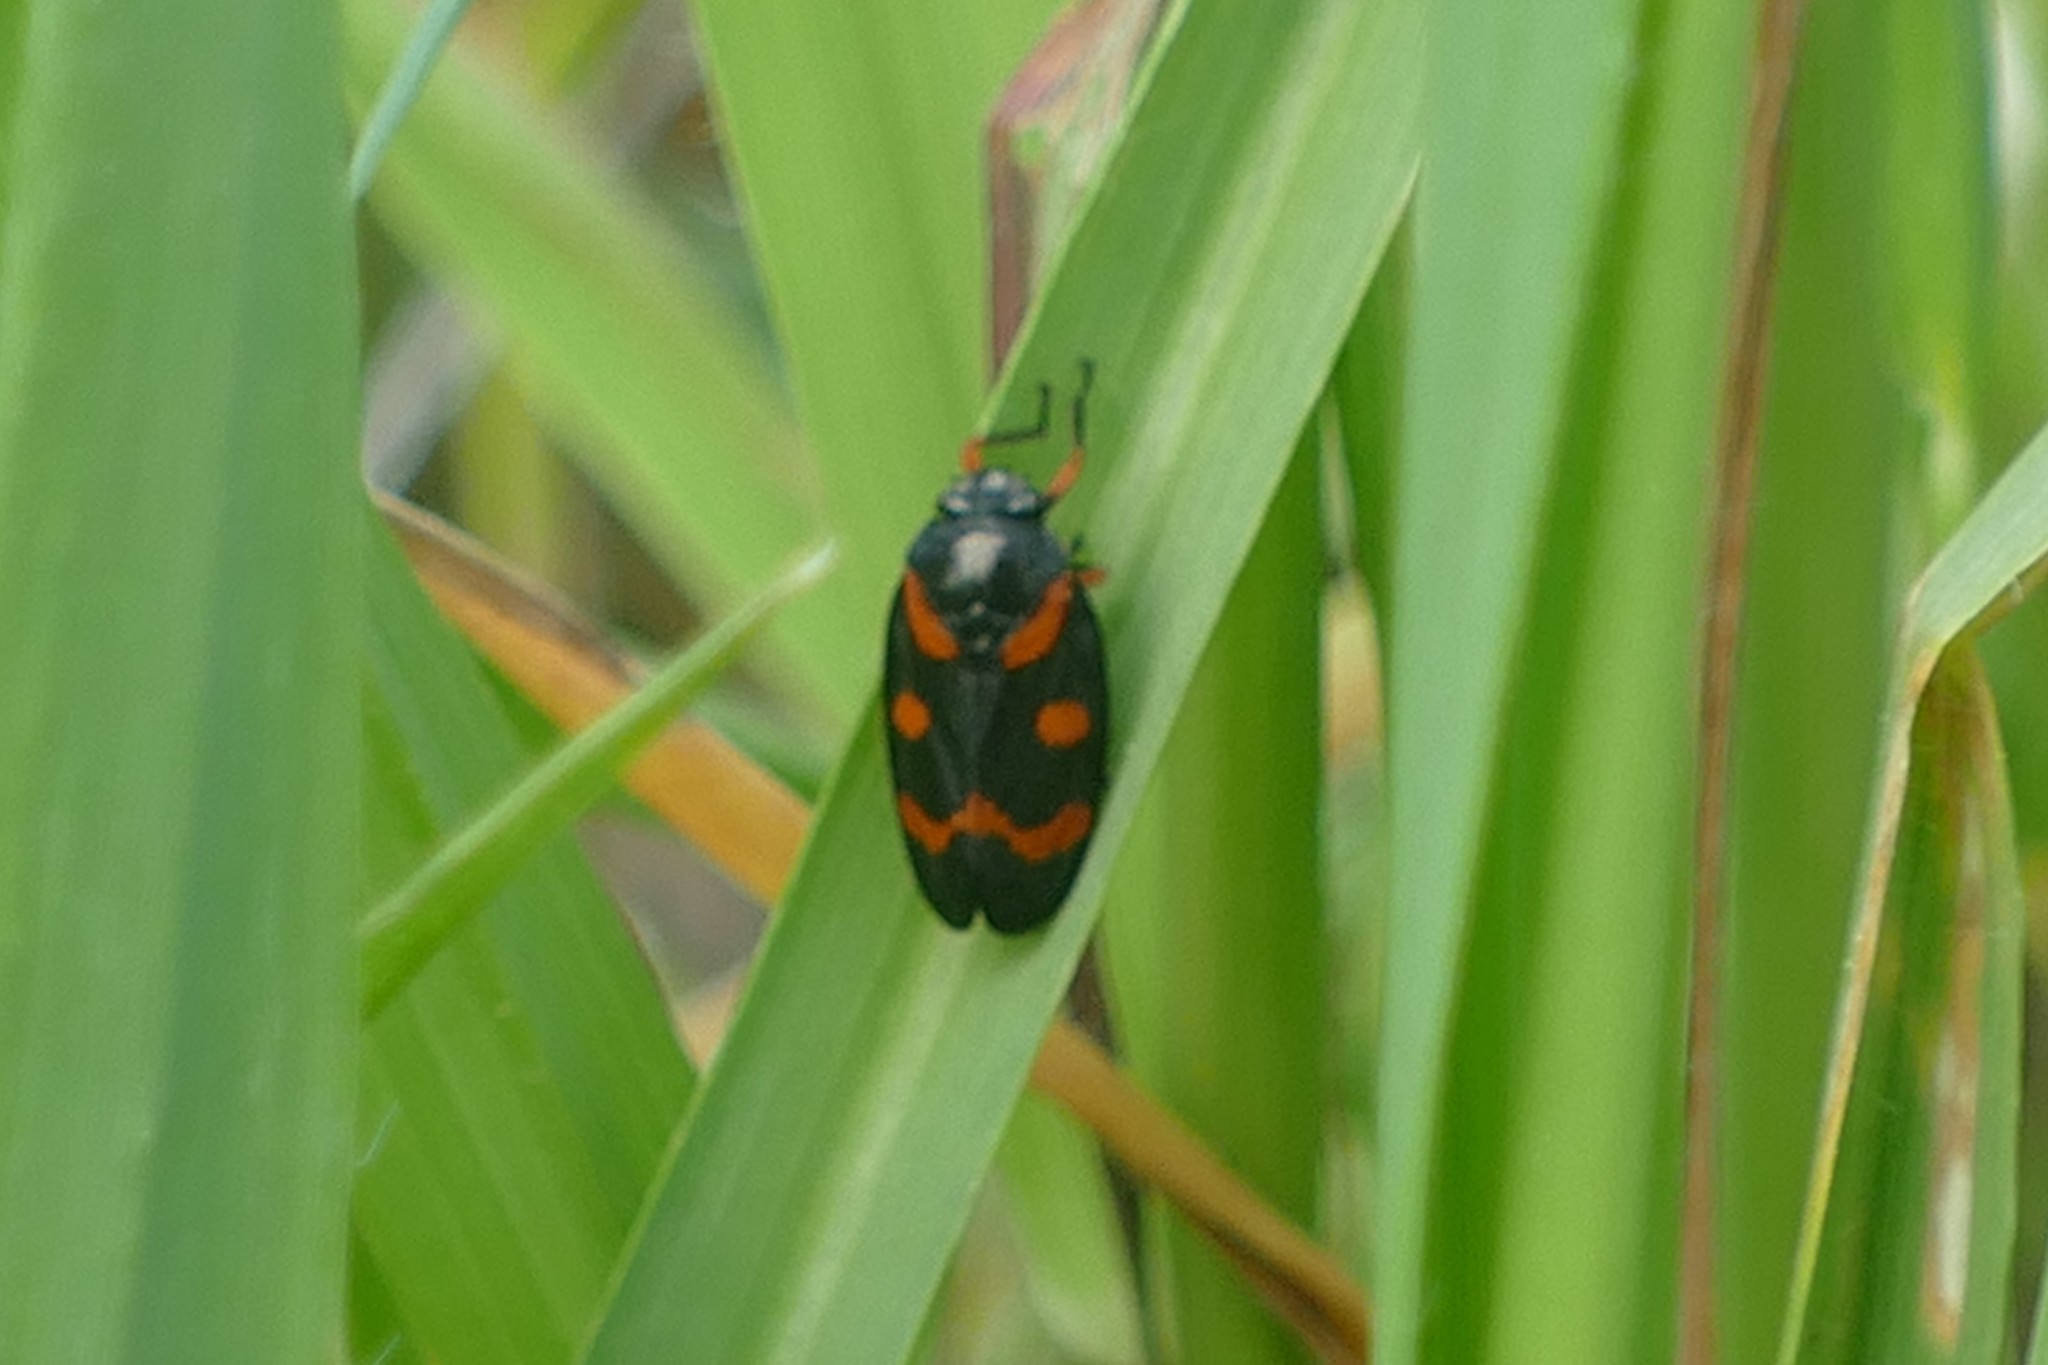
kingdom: Animalia
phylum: Arthropoda
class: Insecta
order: Hemiptera
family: Cercopidae
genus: Cercopis
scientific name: Cercopis intermedia
